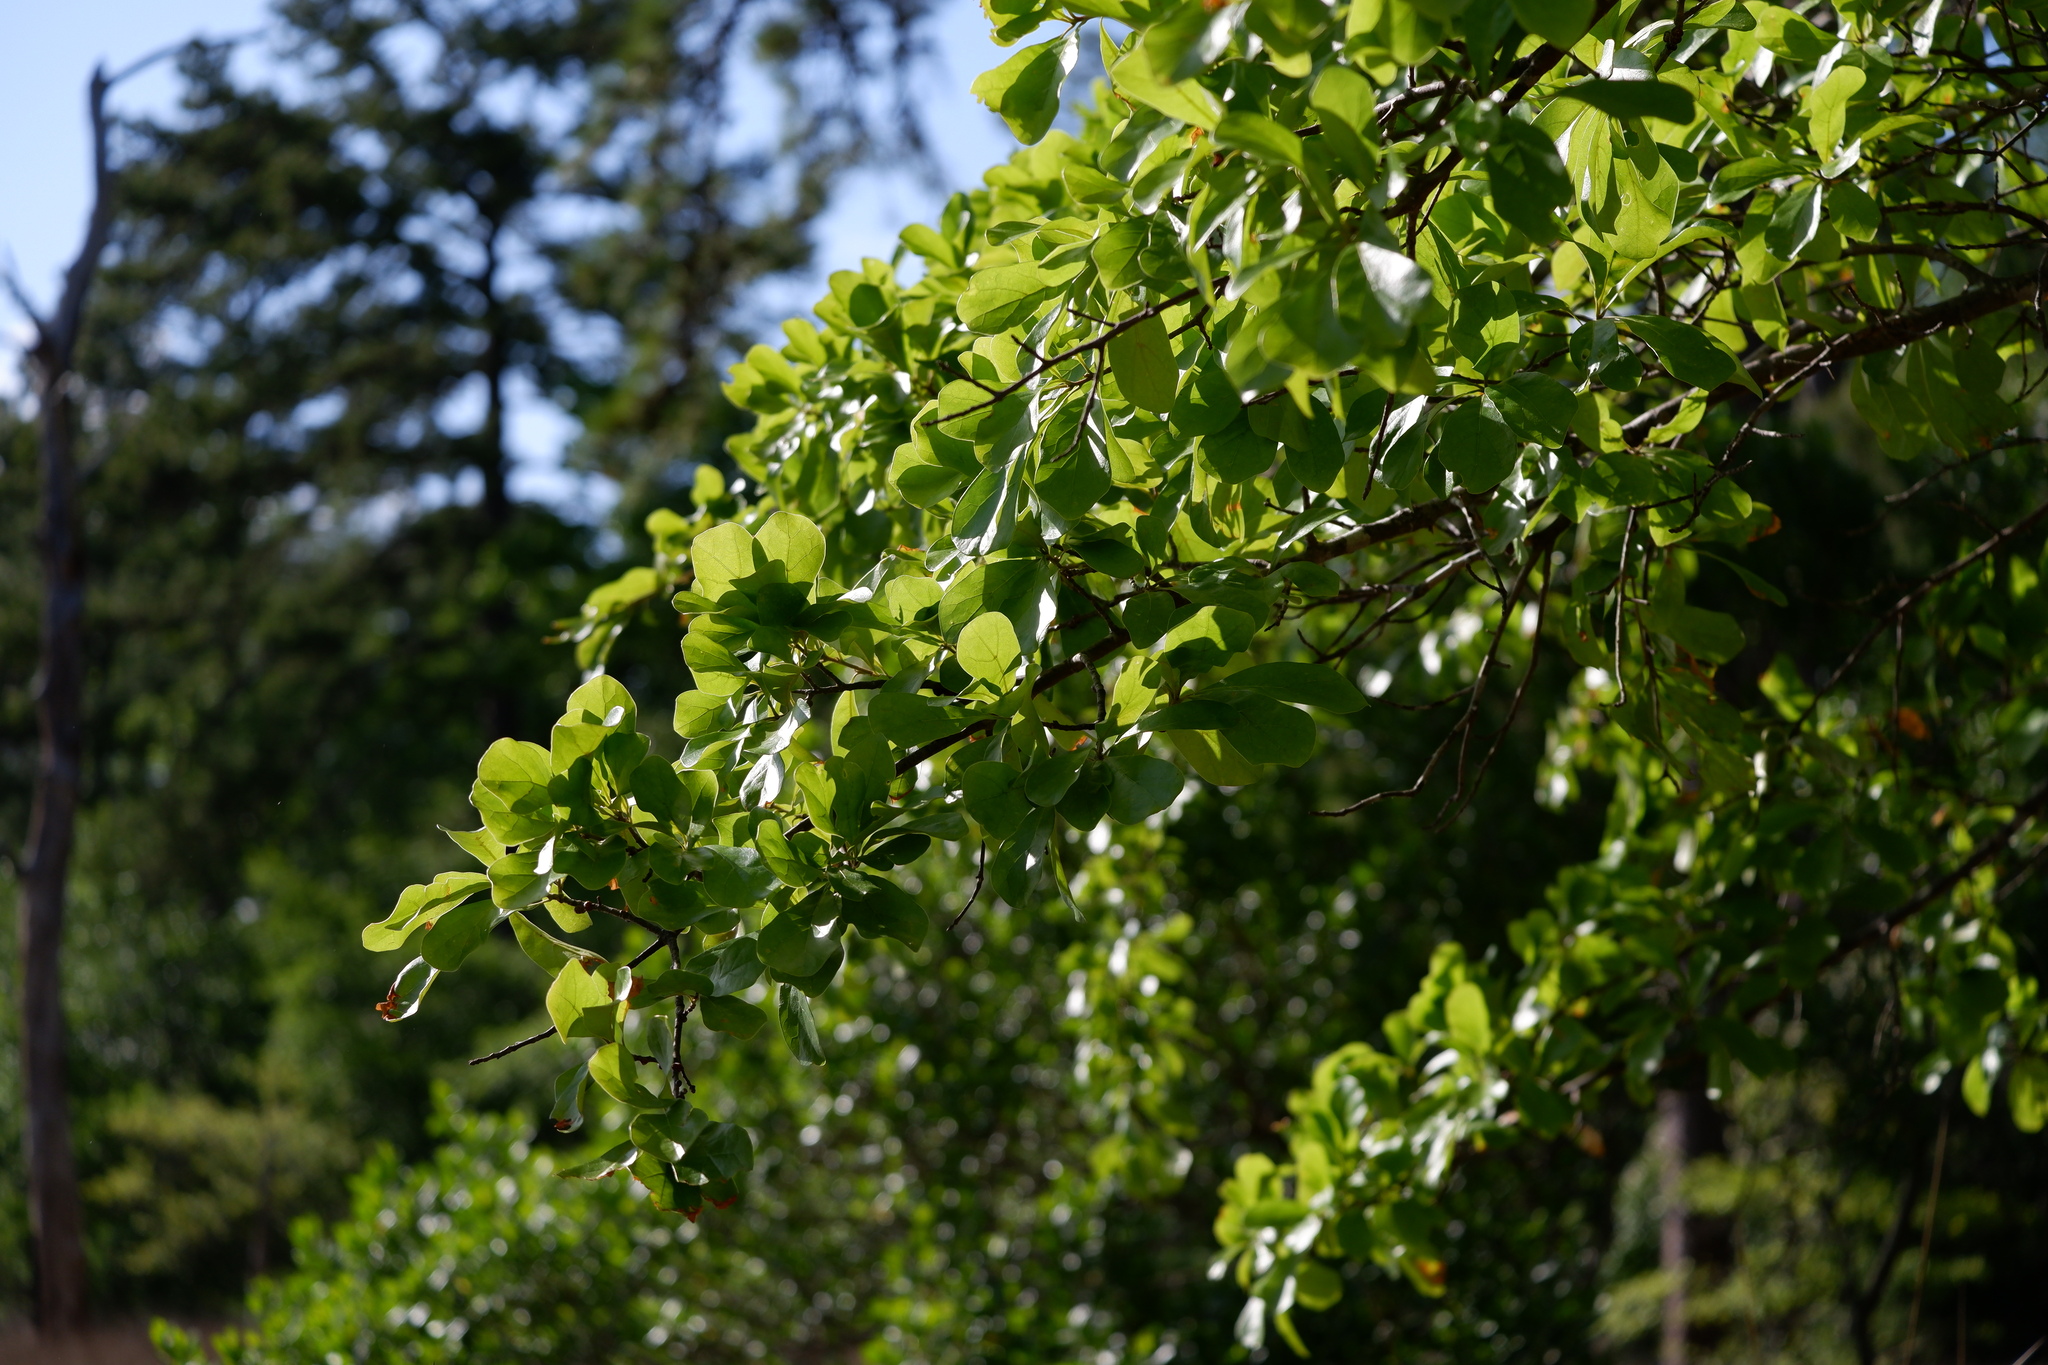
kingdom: Plantae
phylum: Tracheophyta
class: Magnoliopsida
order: Fagales
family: Fagaceae
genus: Quercus
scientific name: Quercus nigra
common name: Water oak
